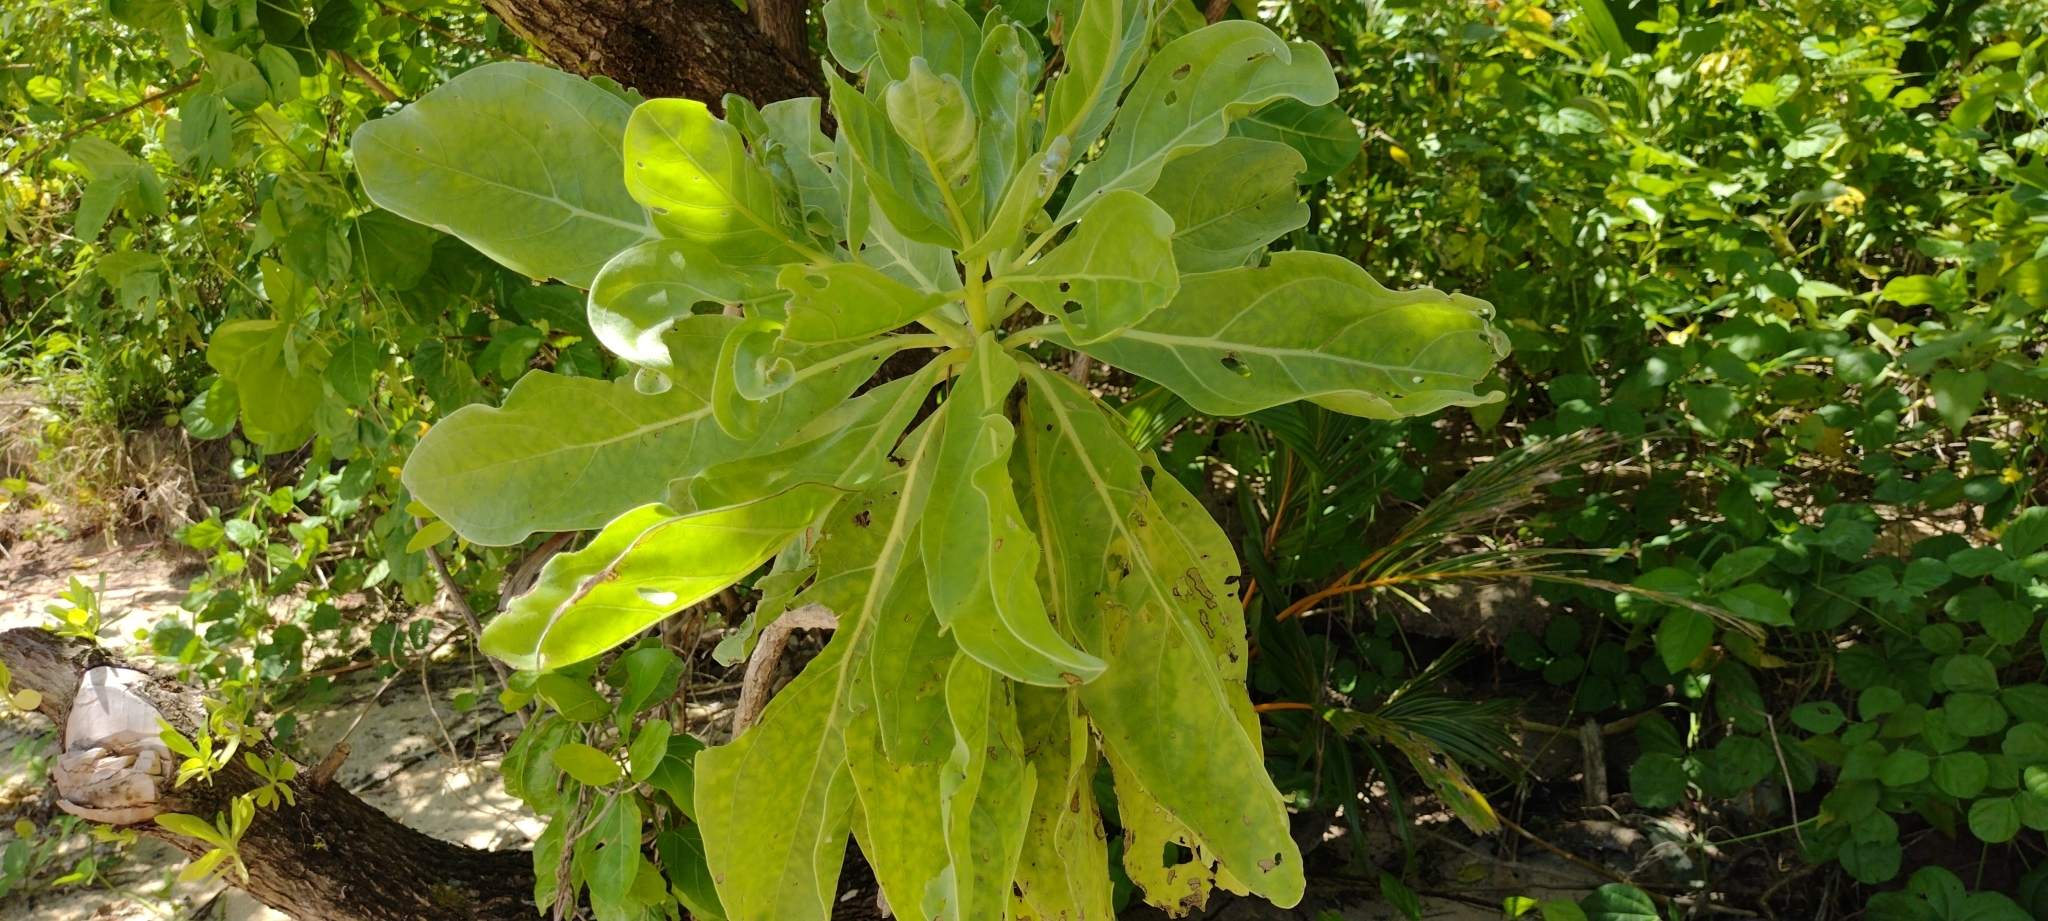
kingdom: Plantae
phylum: Tracheophyta
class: Magnoliopsida
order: Boraginales
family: Heliotropiaceae
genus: Heliotropium
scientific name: Heliotropium velutinum
